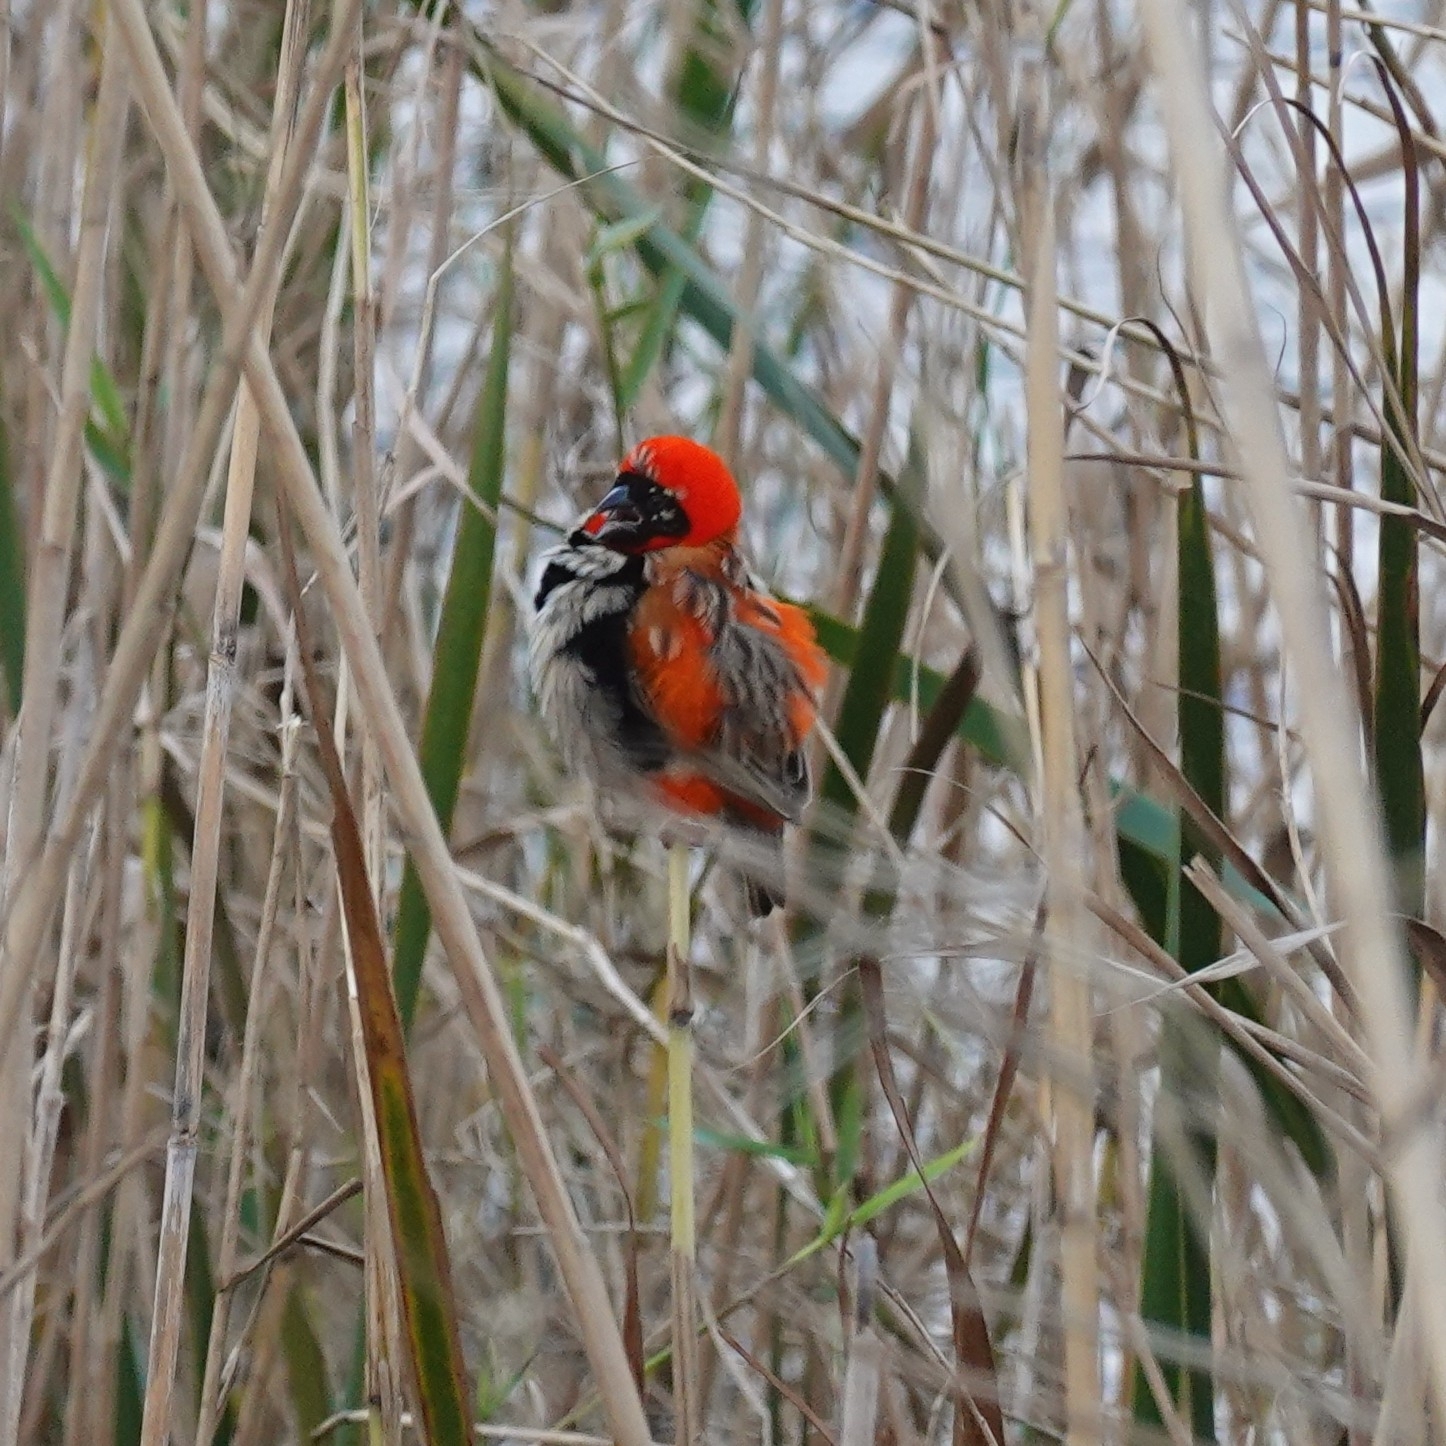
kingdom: Animalia
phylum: Chordata
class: Aves
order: Passeriformes
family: Ploceidae
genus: Euplectes
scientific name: Euplectes orix
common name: Southern red bishop
